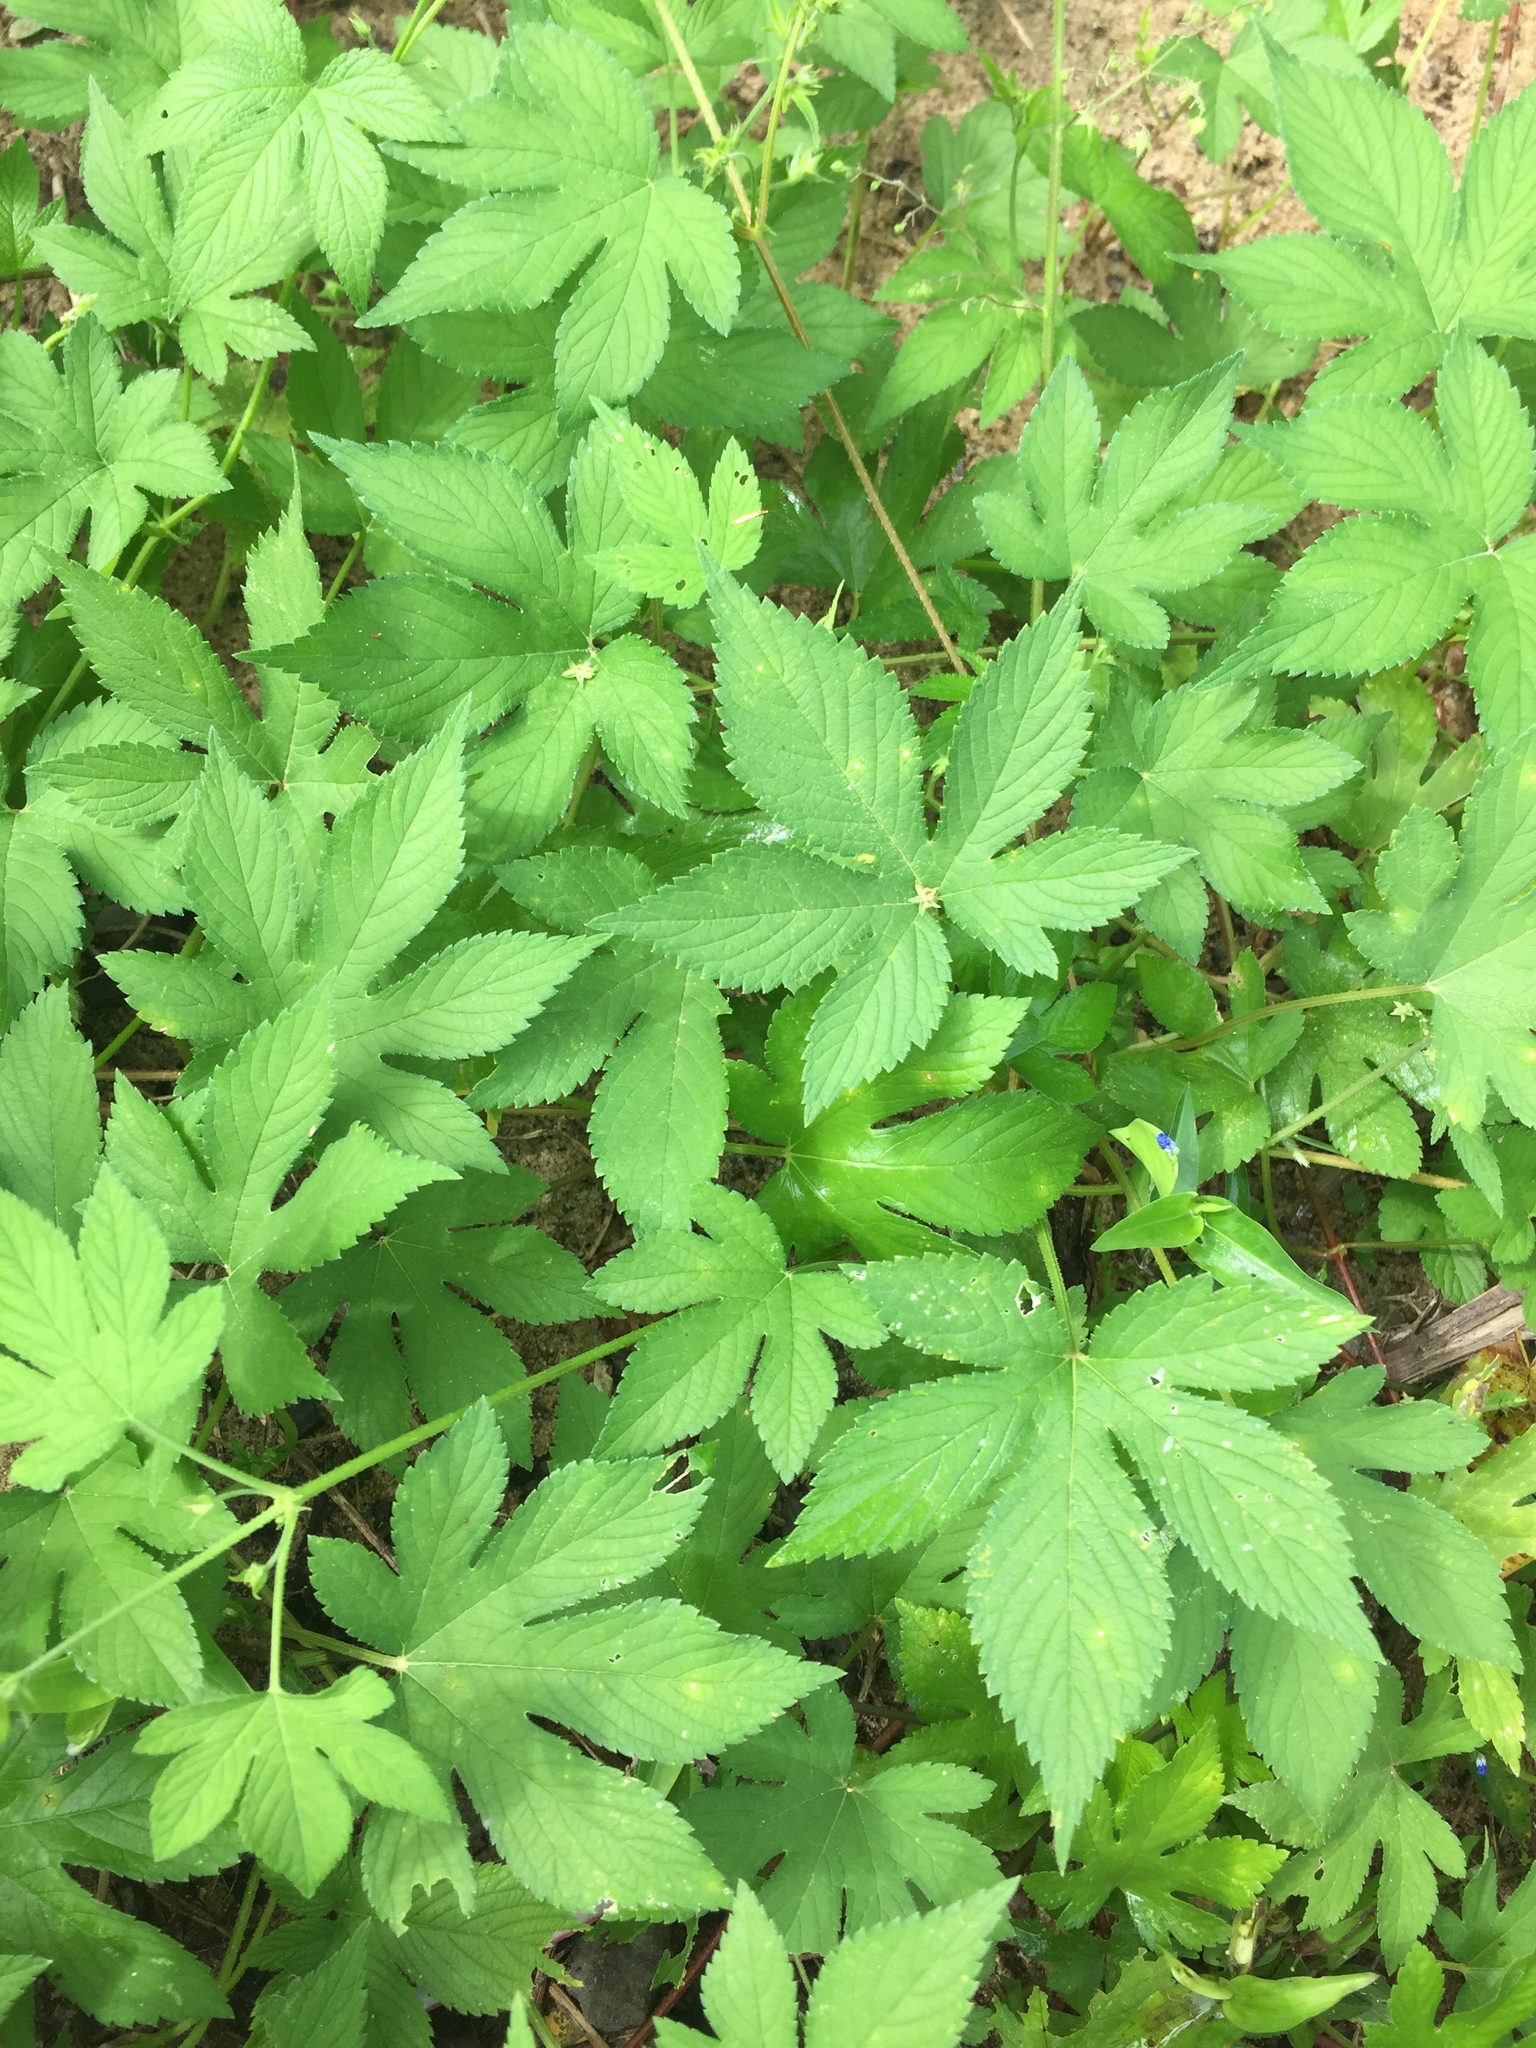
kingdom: Plantae
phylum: Tracheophyta
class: Magnoliopsida
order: Rosales
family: Cannabaceae
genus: Humulus
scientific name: Humulus scandens
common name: Japanese hop
